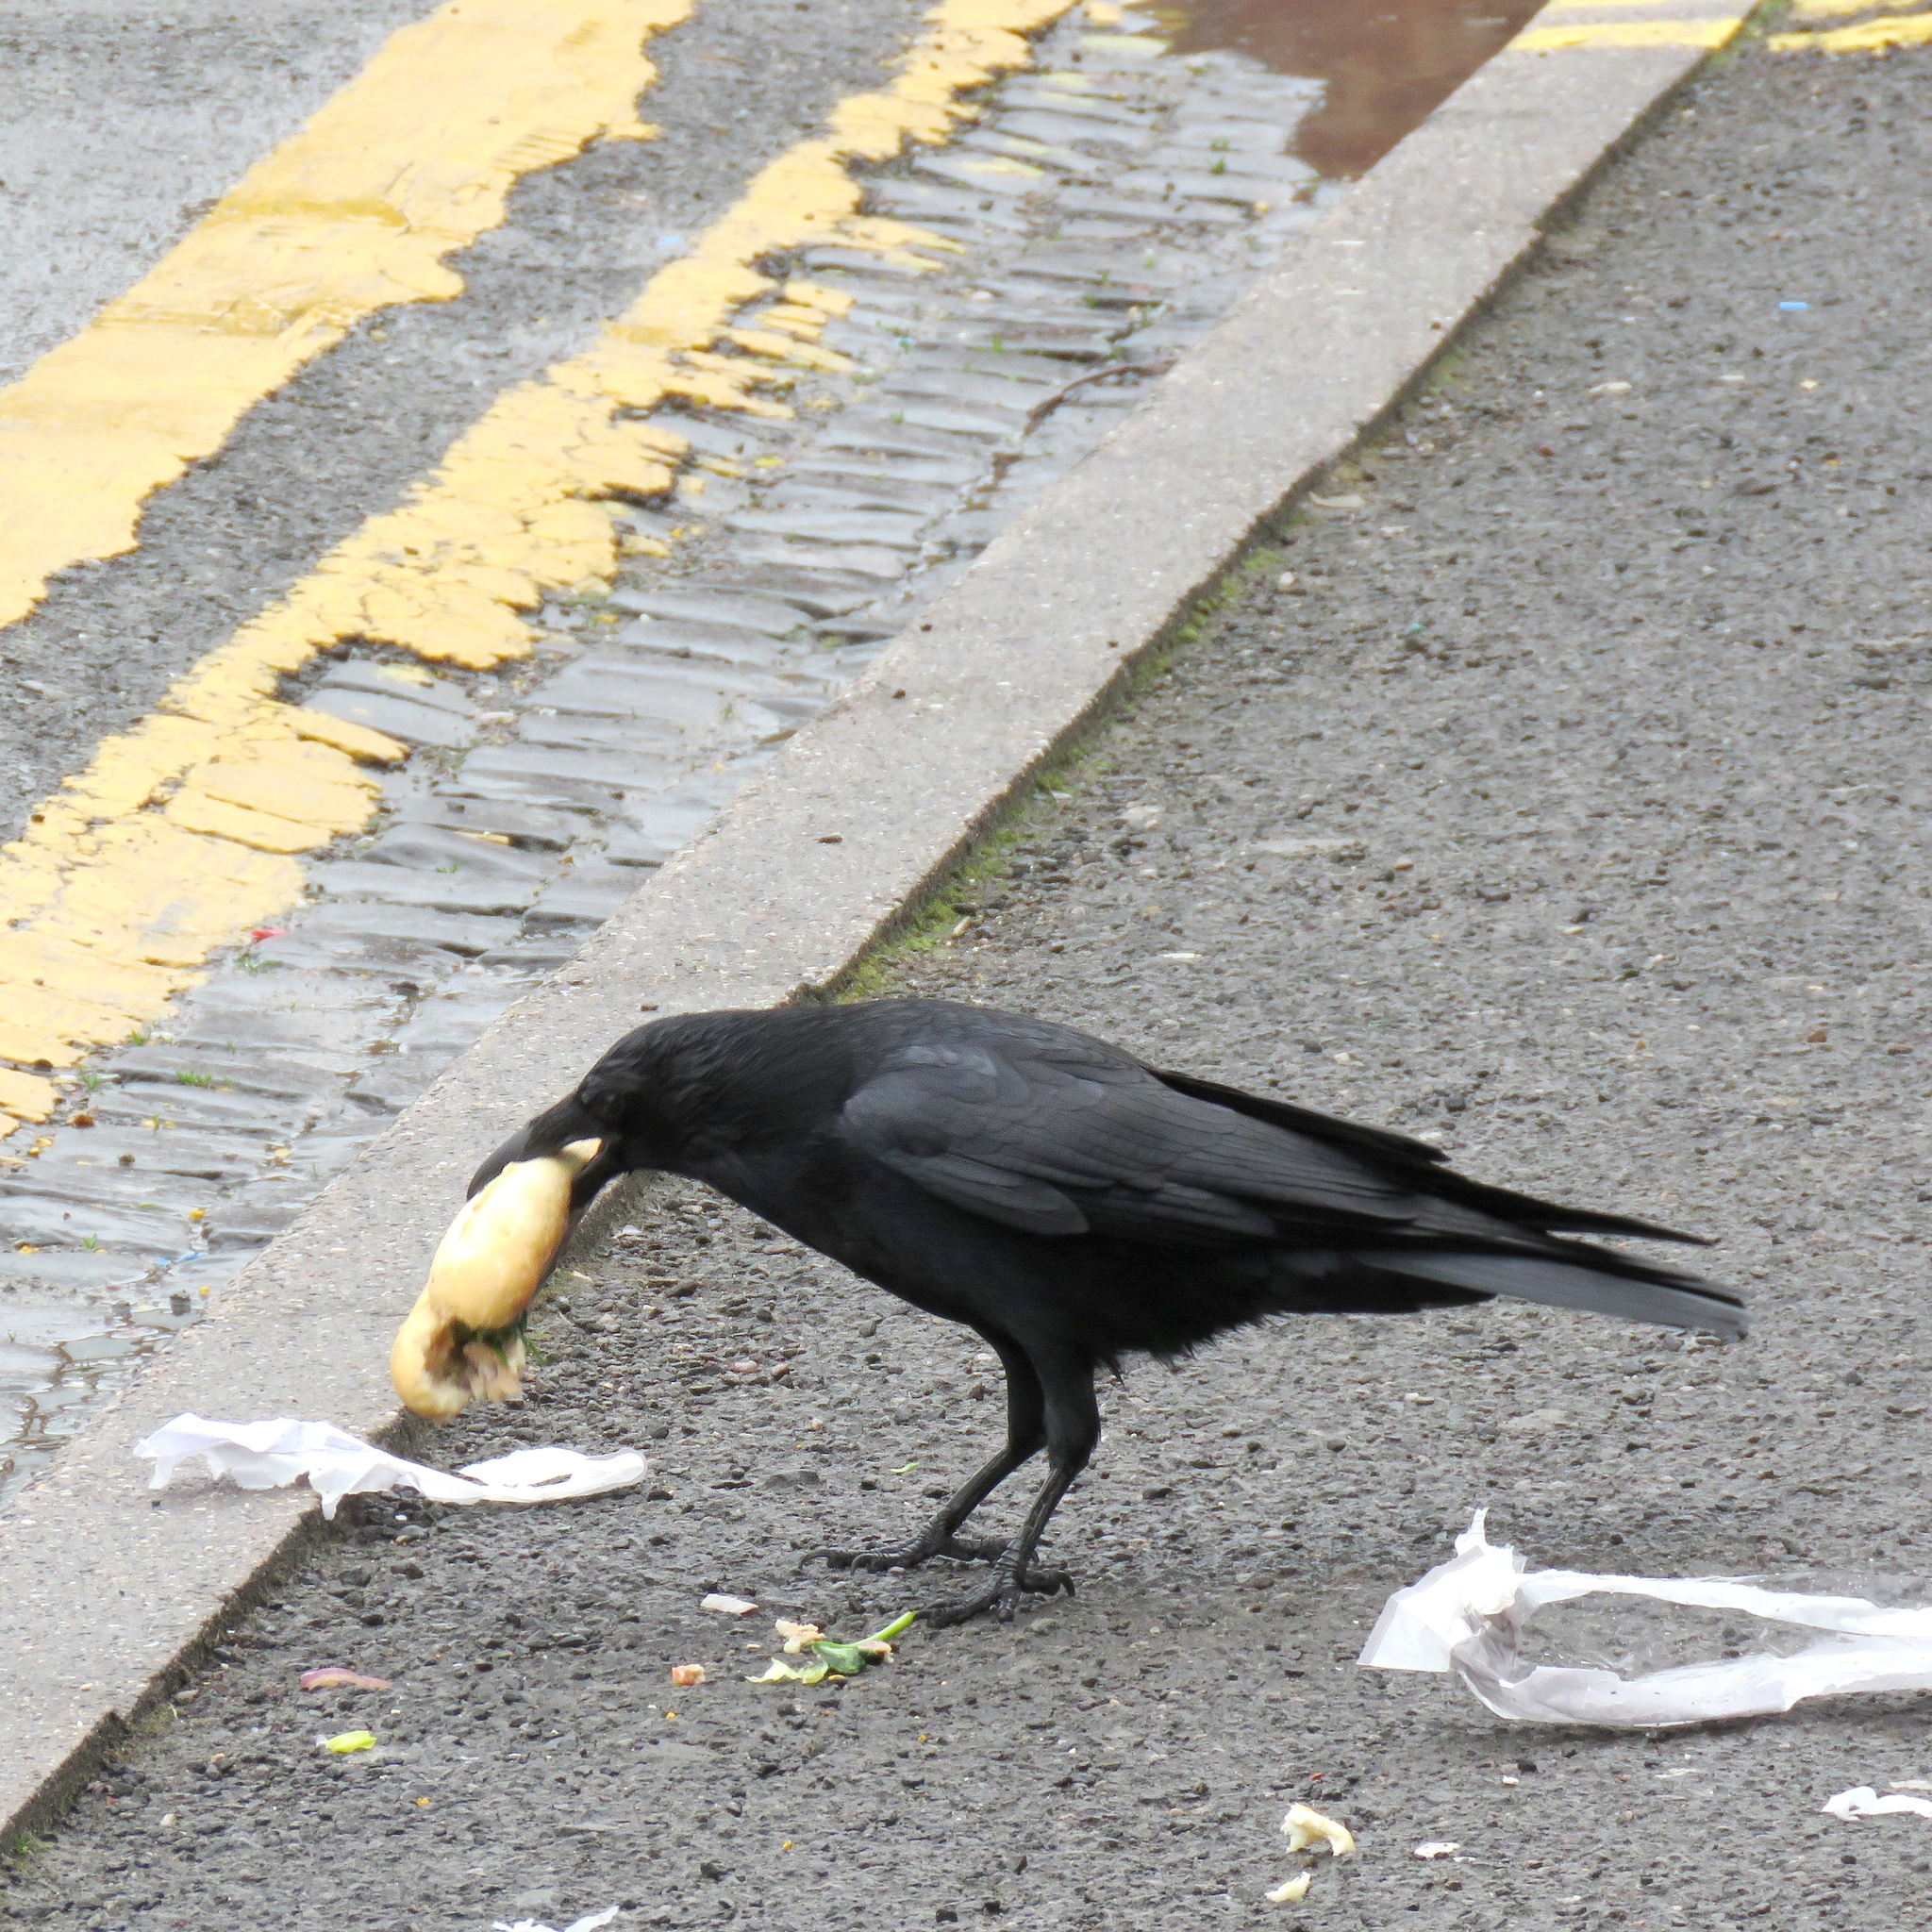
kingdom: Animalia
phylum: Chordata
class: Aves
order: Passeriformes
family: Corvidae
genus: Corvus
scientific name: Corvus corone
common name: Carrion crow
